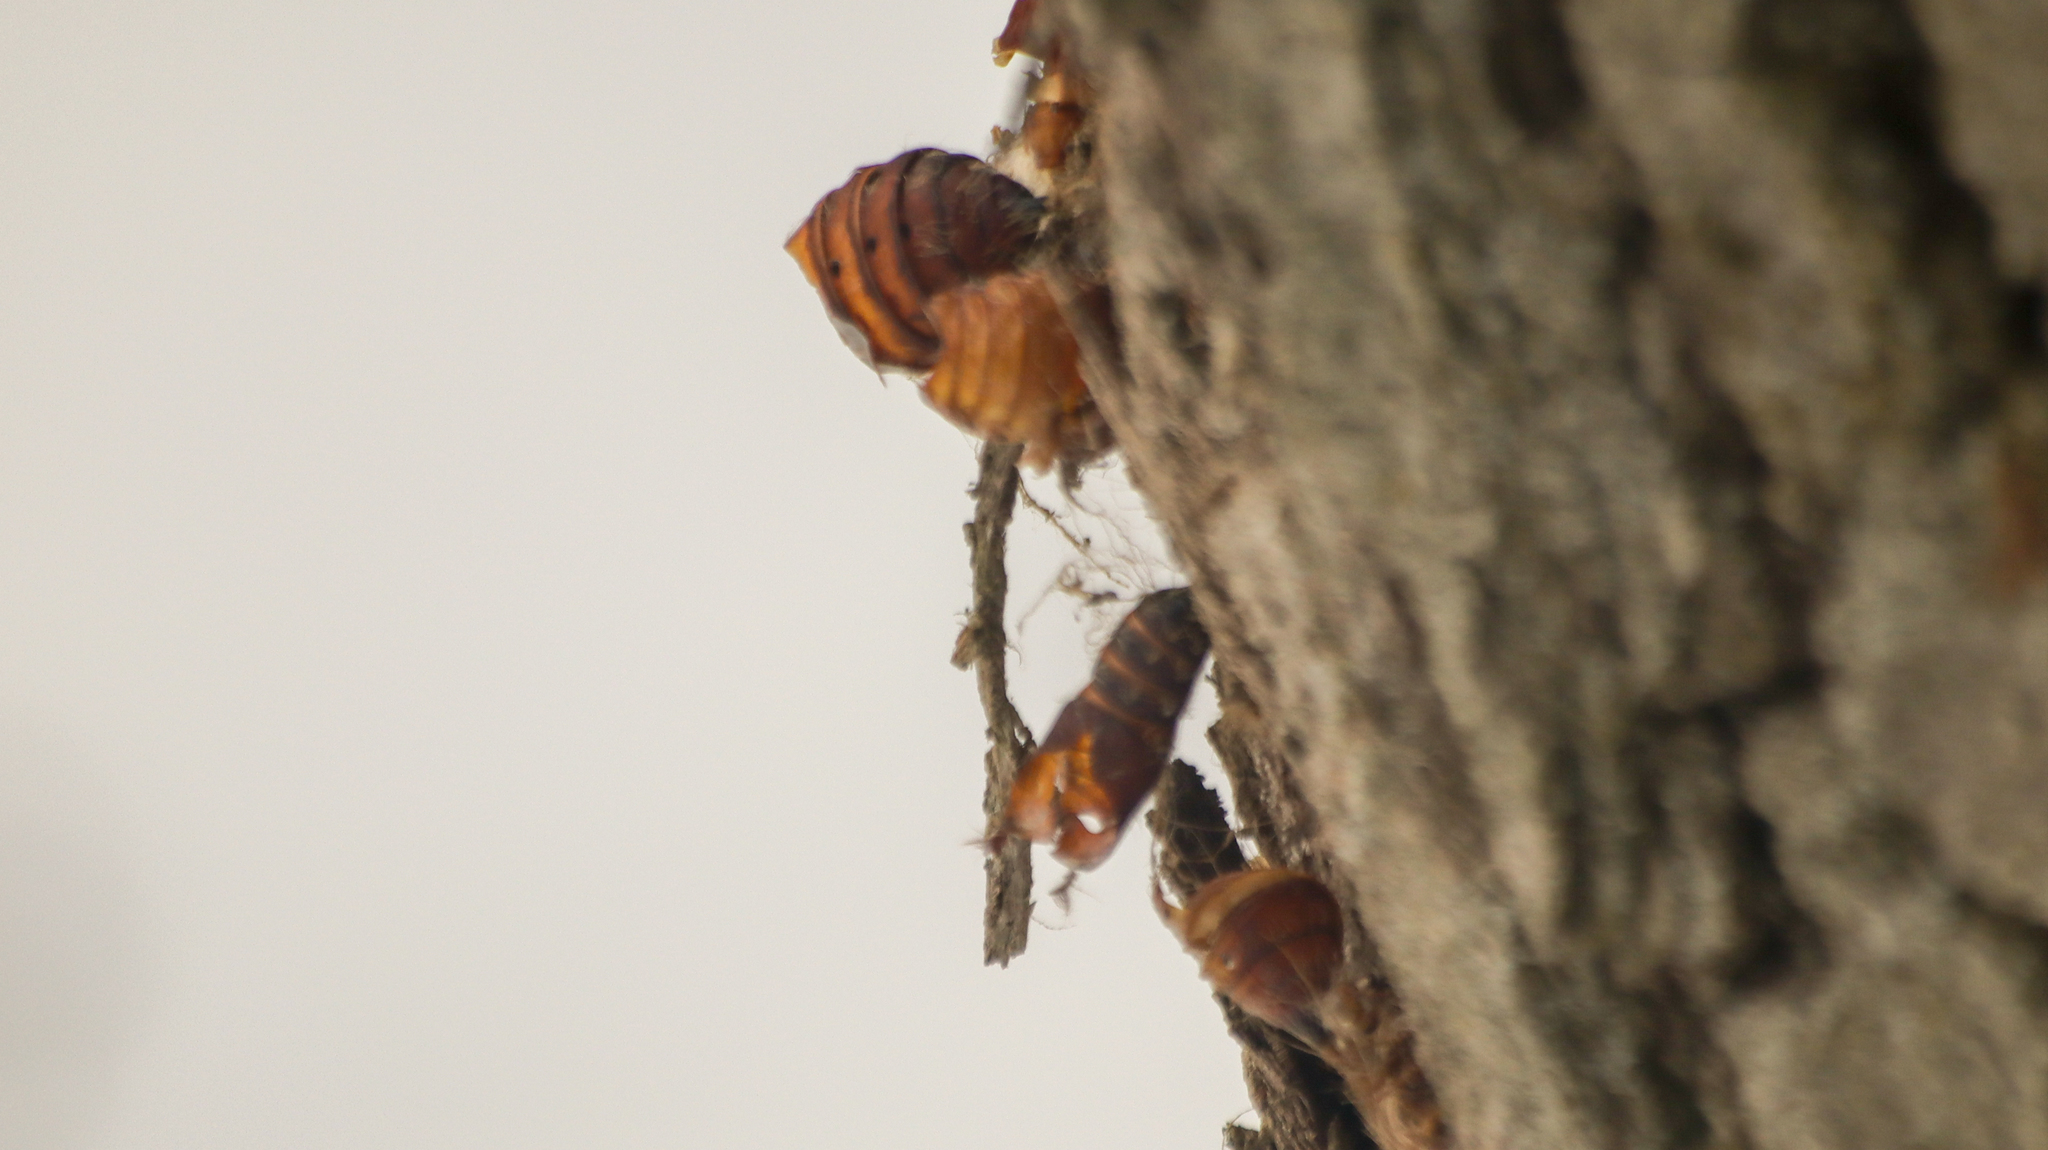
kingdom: Animalia
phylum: Arthropoda
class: Insecta
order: Lepidoptera
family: Erebidae
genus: Lymantria
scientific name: Lymantria dispar
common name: Gypsy moth
